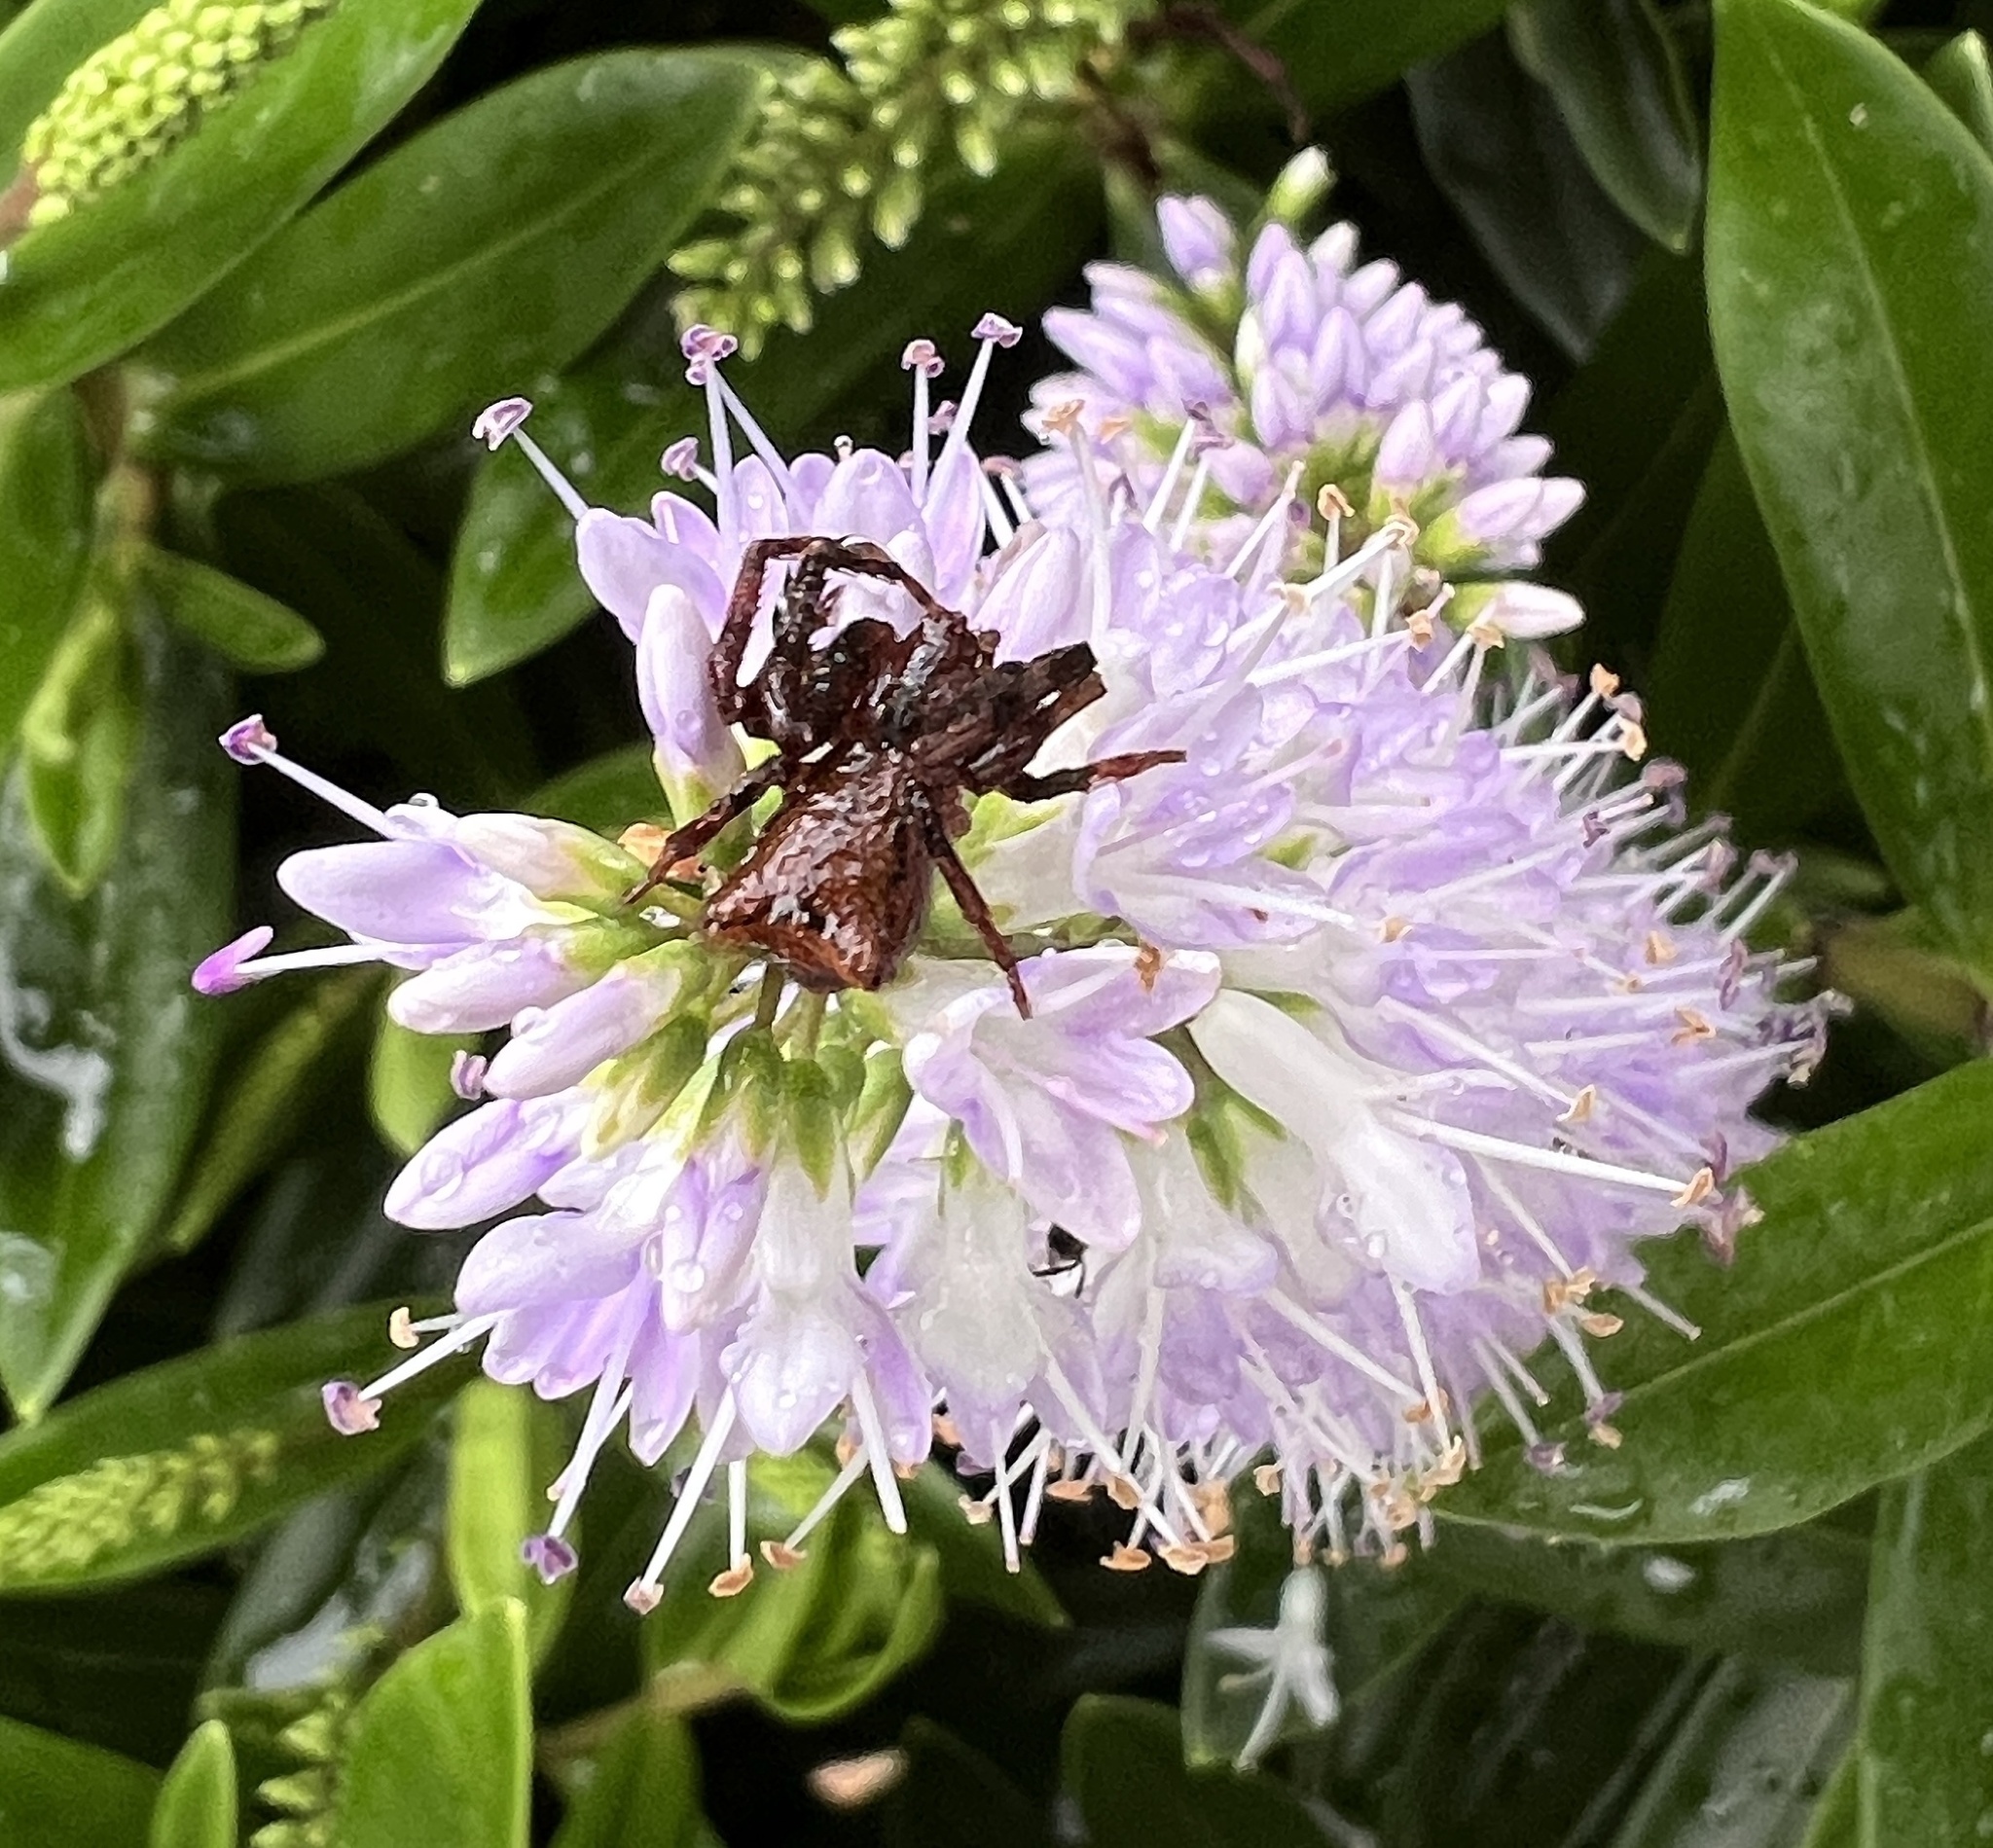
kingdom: Animalia
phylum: Arthropoda
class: Arachnida
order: Araneae
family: Thomisidae
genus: Sidymella
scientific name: Sidymella angularis
